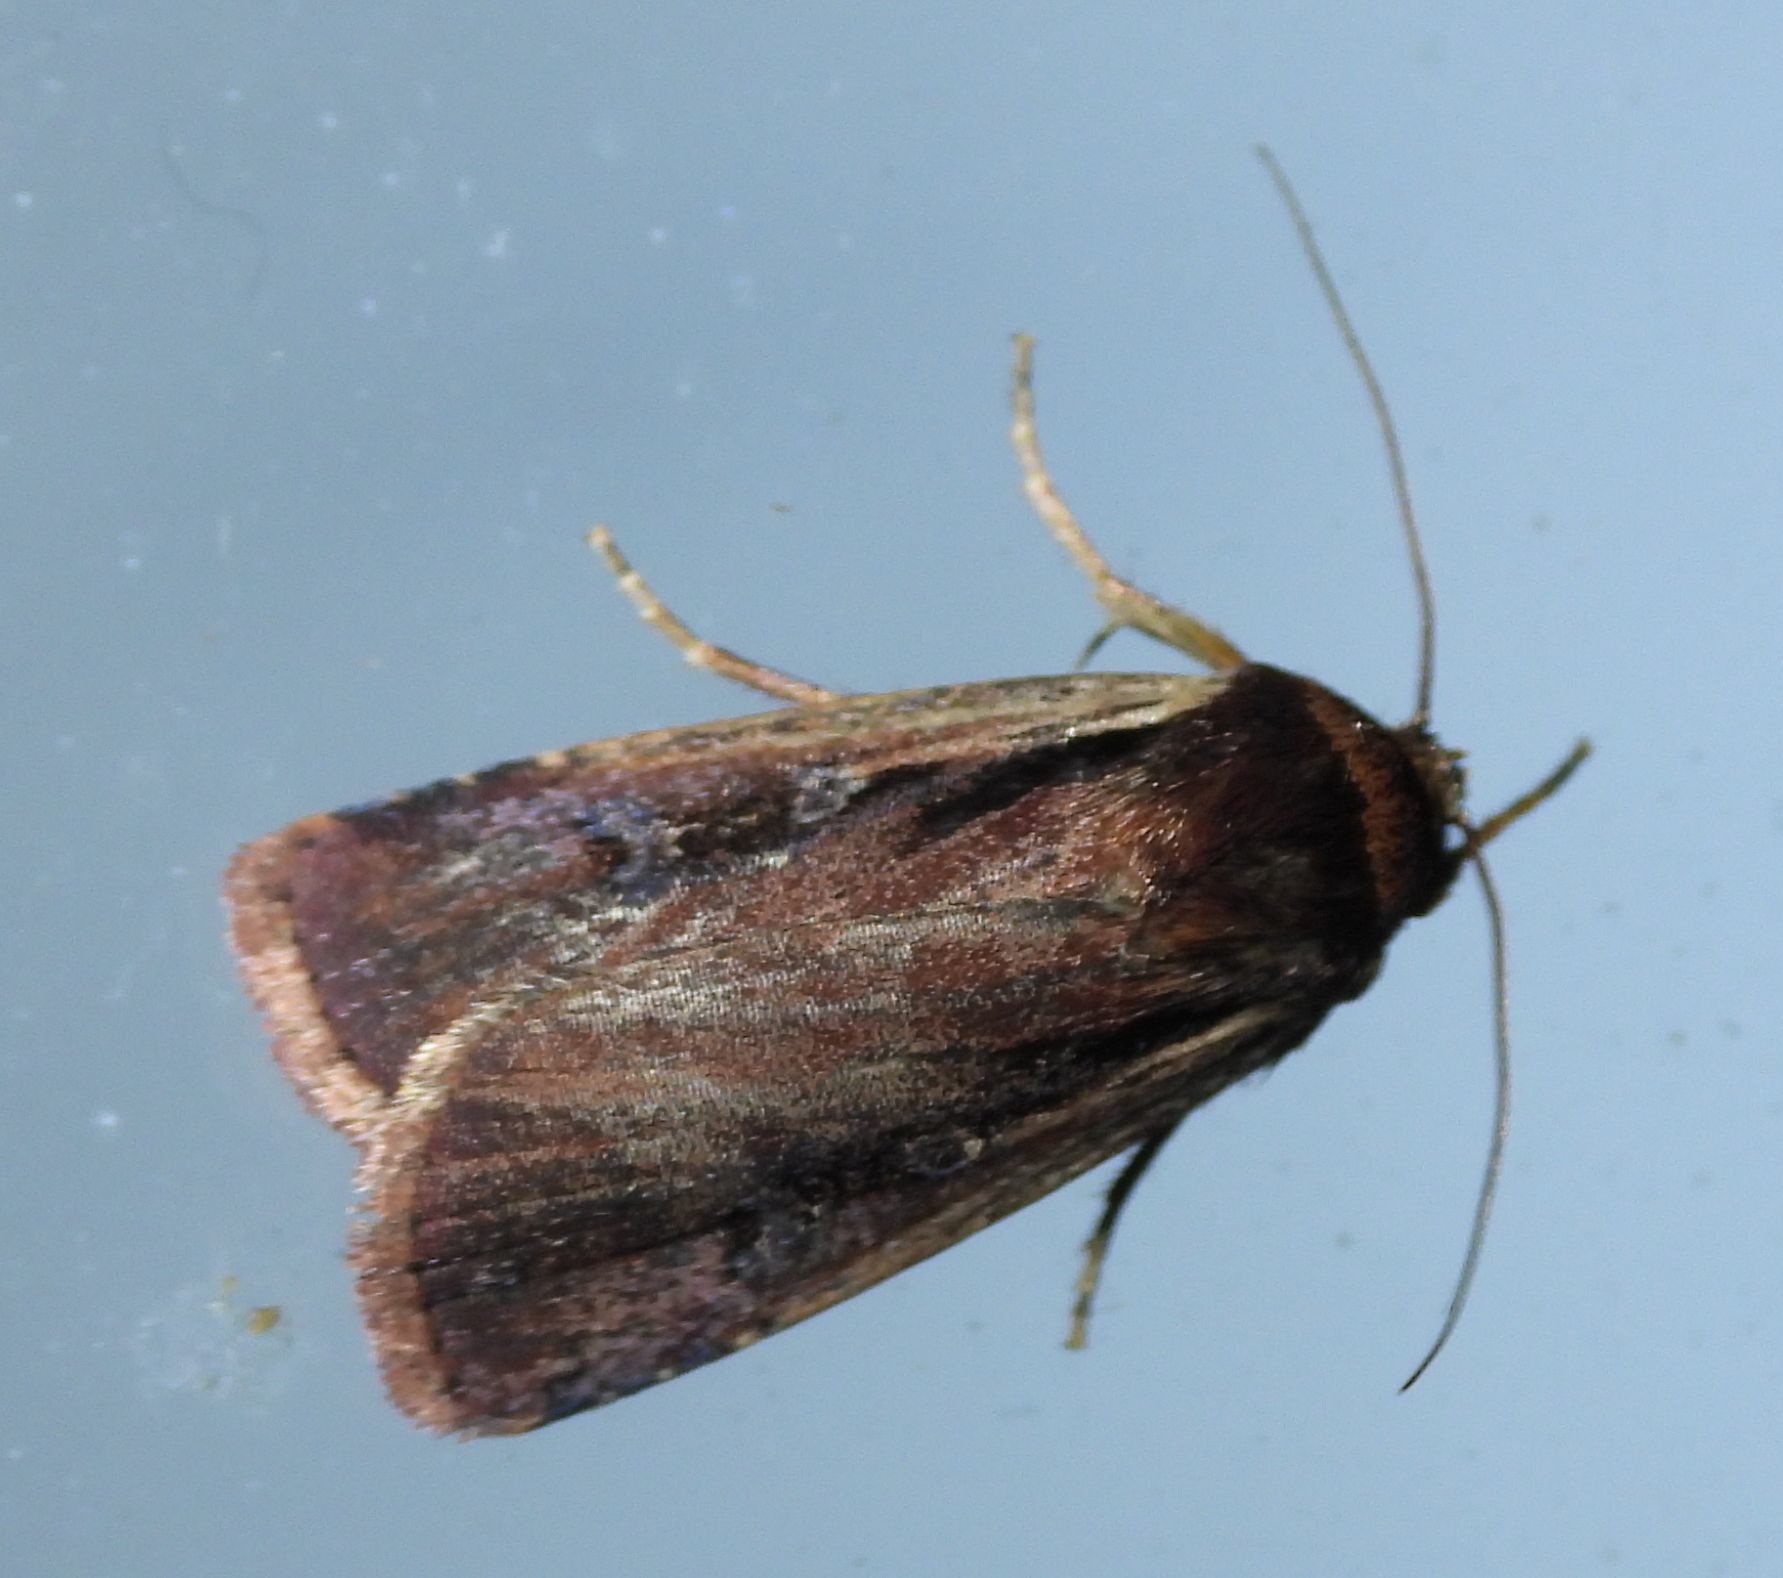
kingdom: Animalia
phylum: Arthropoda
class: Insecta
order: Lepidoptera
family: Noctuidae
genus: Ochropleura
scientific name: Ochropleura implecta
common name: Flame-shouldered dart
